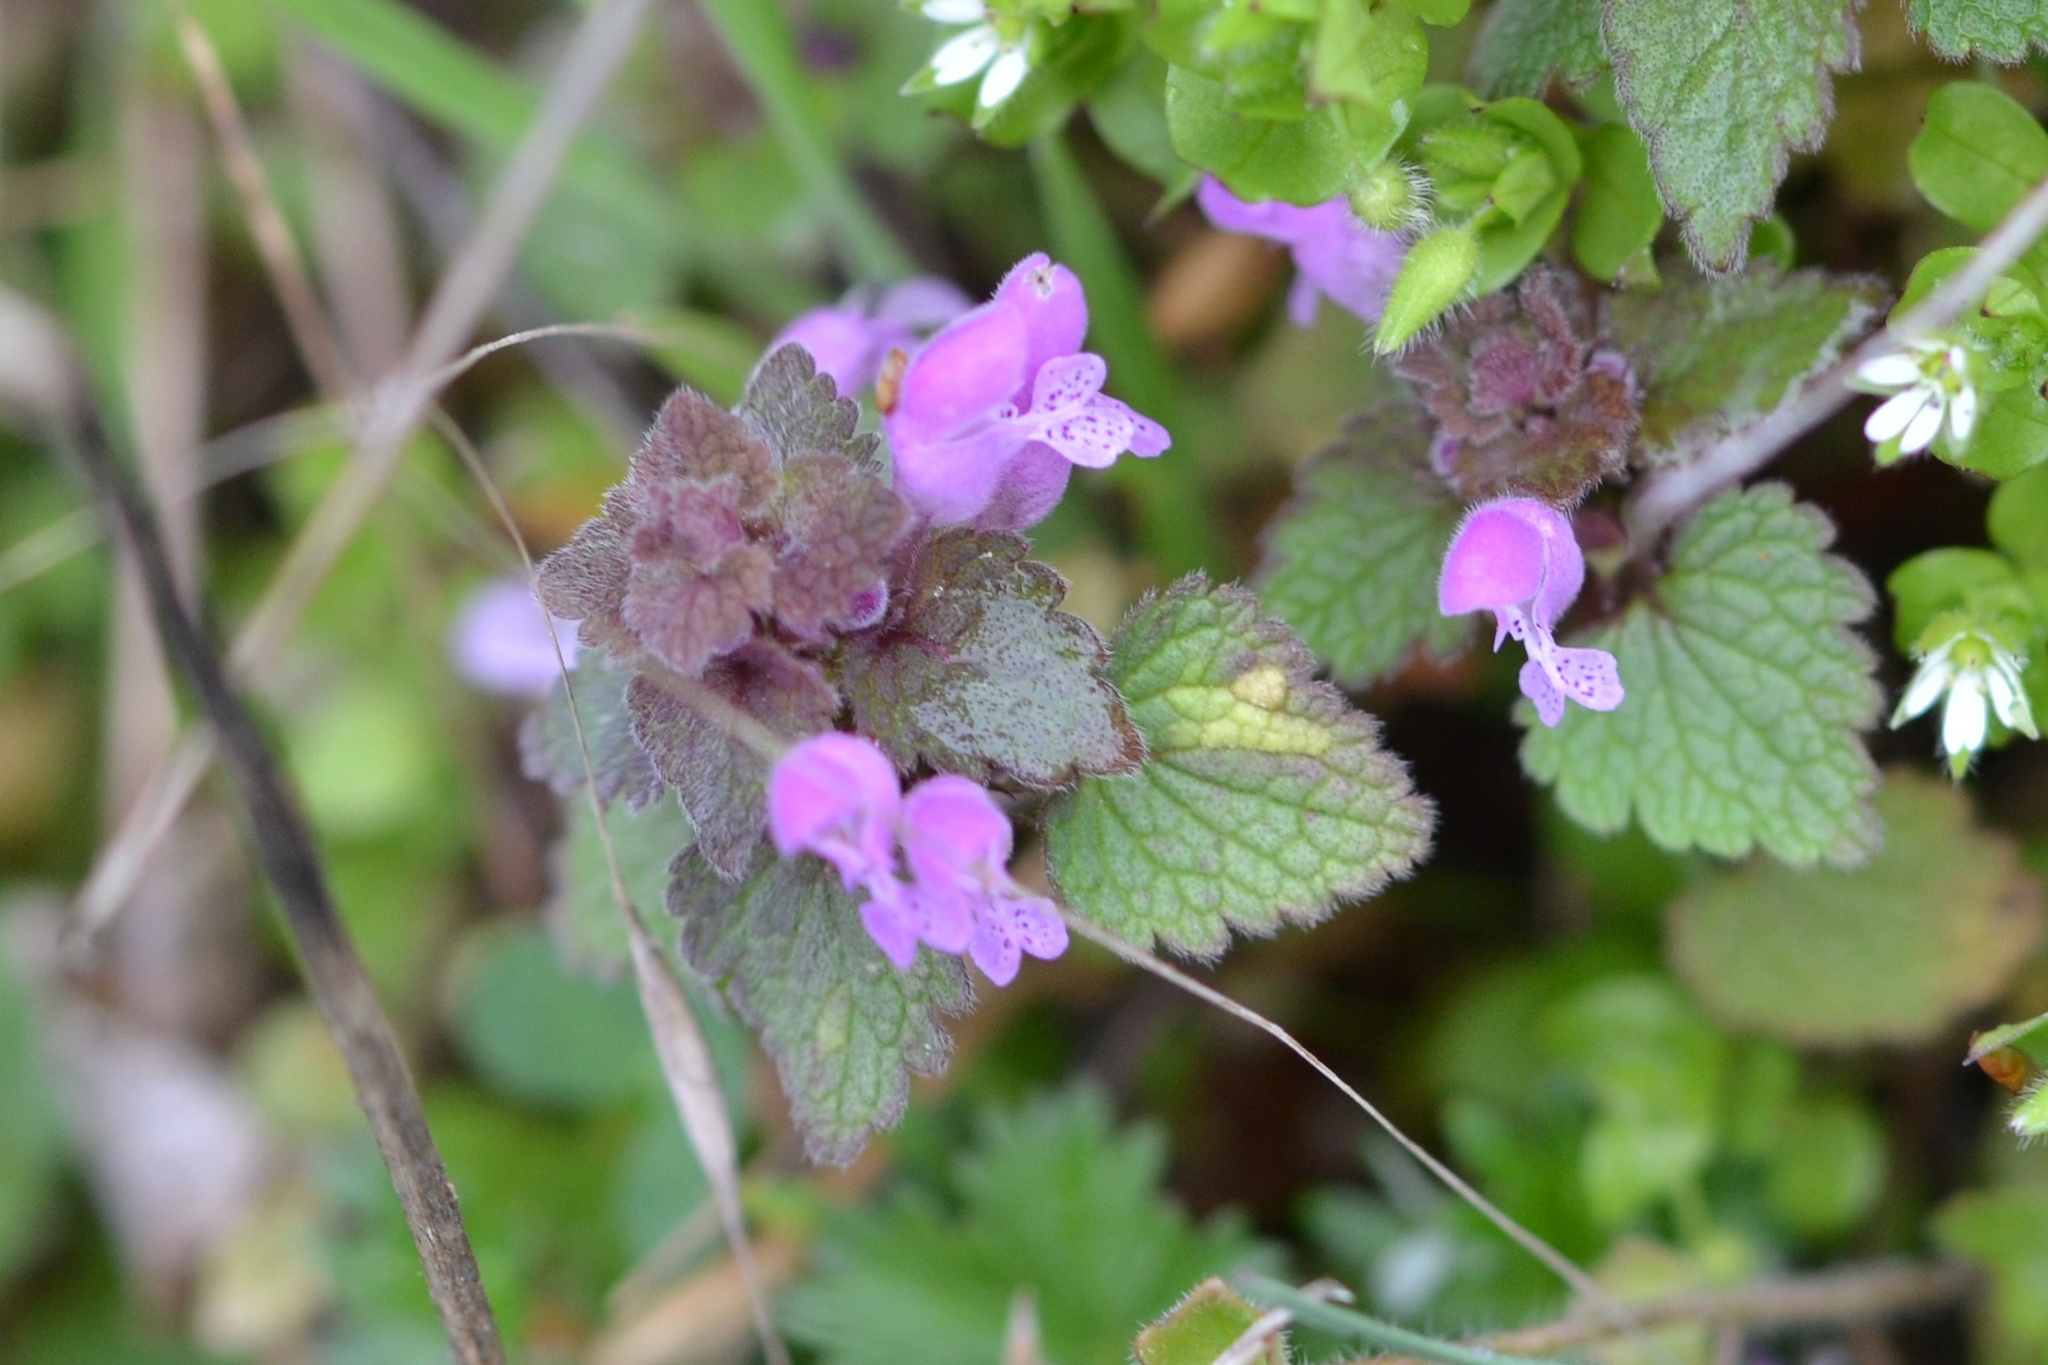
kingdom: Plantae
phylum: Tracheophyta
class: Magnoliopsida
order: Lamiales
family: Lamiaceae
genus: Lamium
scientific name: Lamium purpureum
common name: Red dead-nettle
